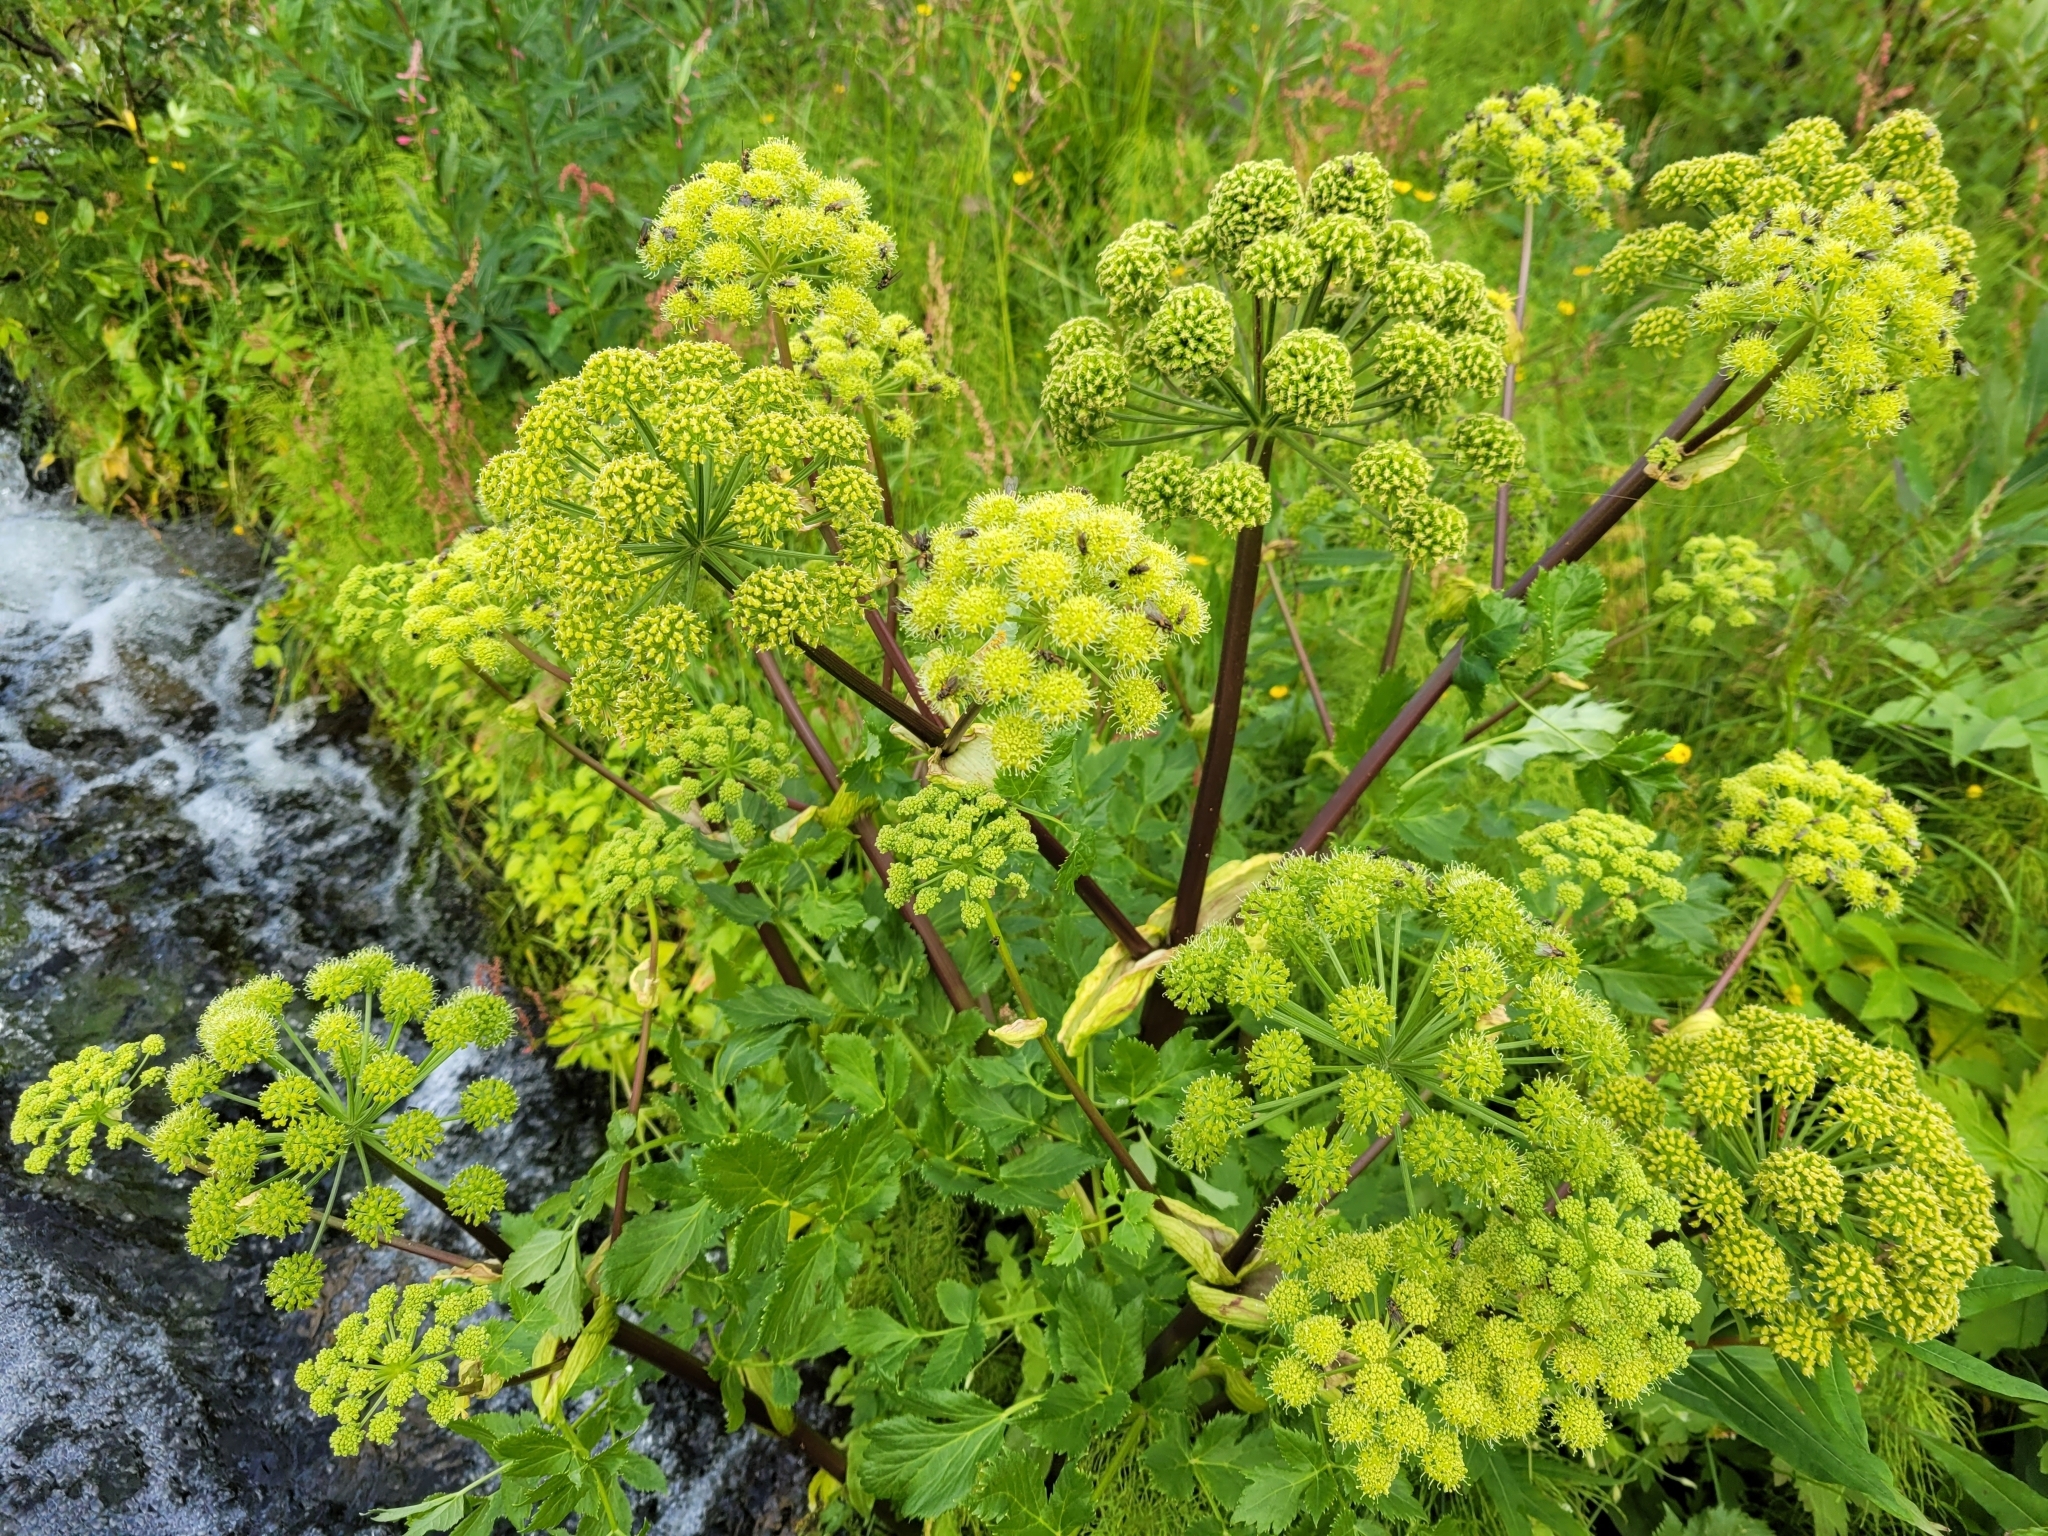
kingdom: Plantae
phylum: Tracheophyta
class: Magnoliopsida
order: Apiales
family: Apiaceae
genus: Angelica
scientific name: Angelica archangelica
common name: Garden angelica
